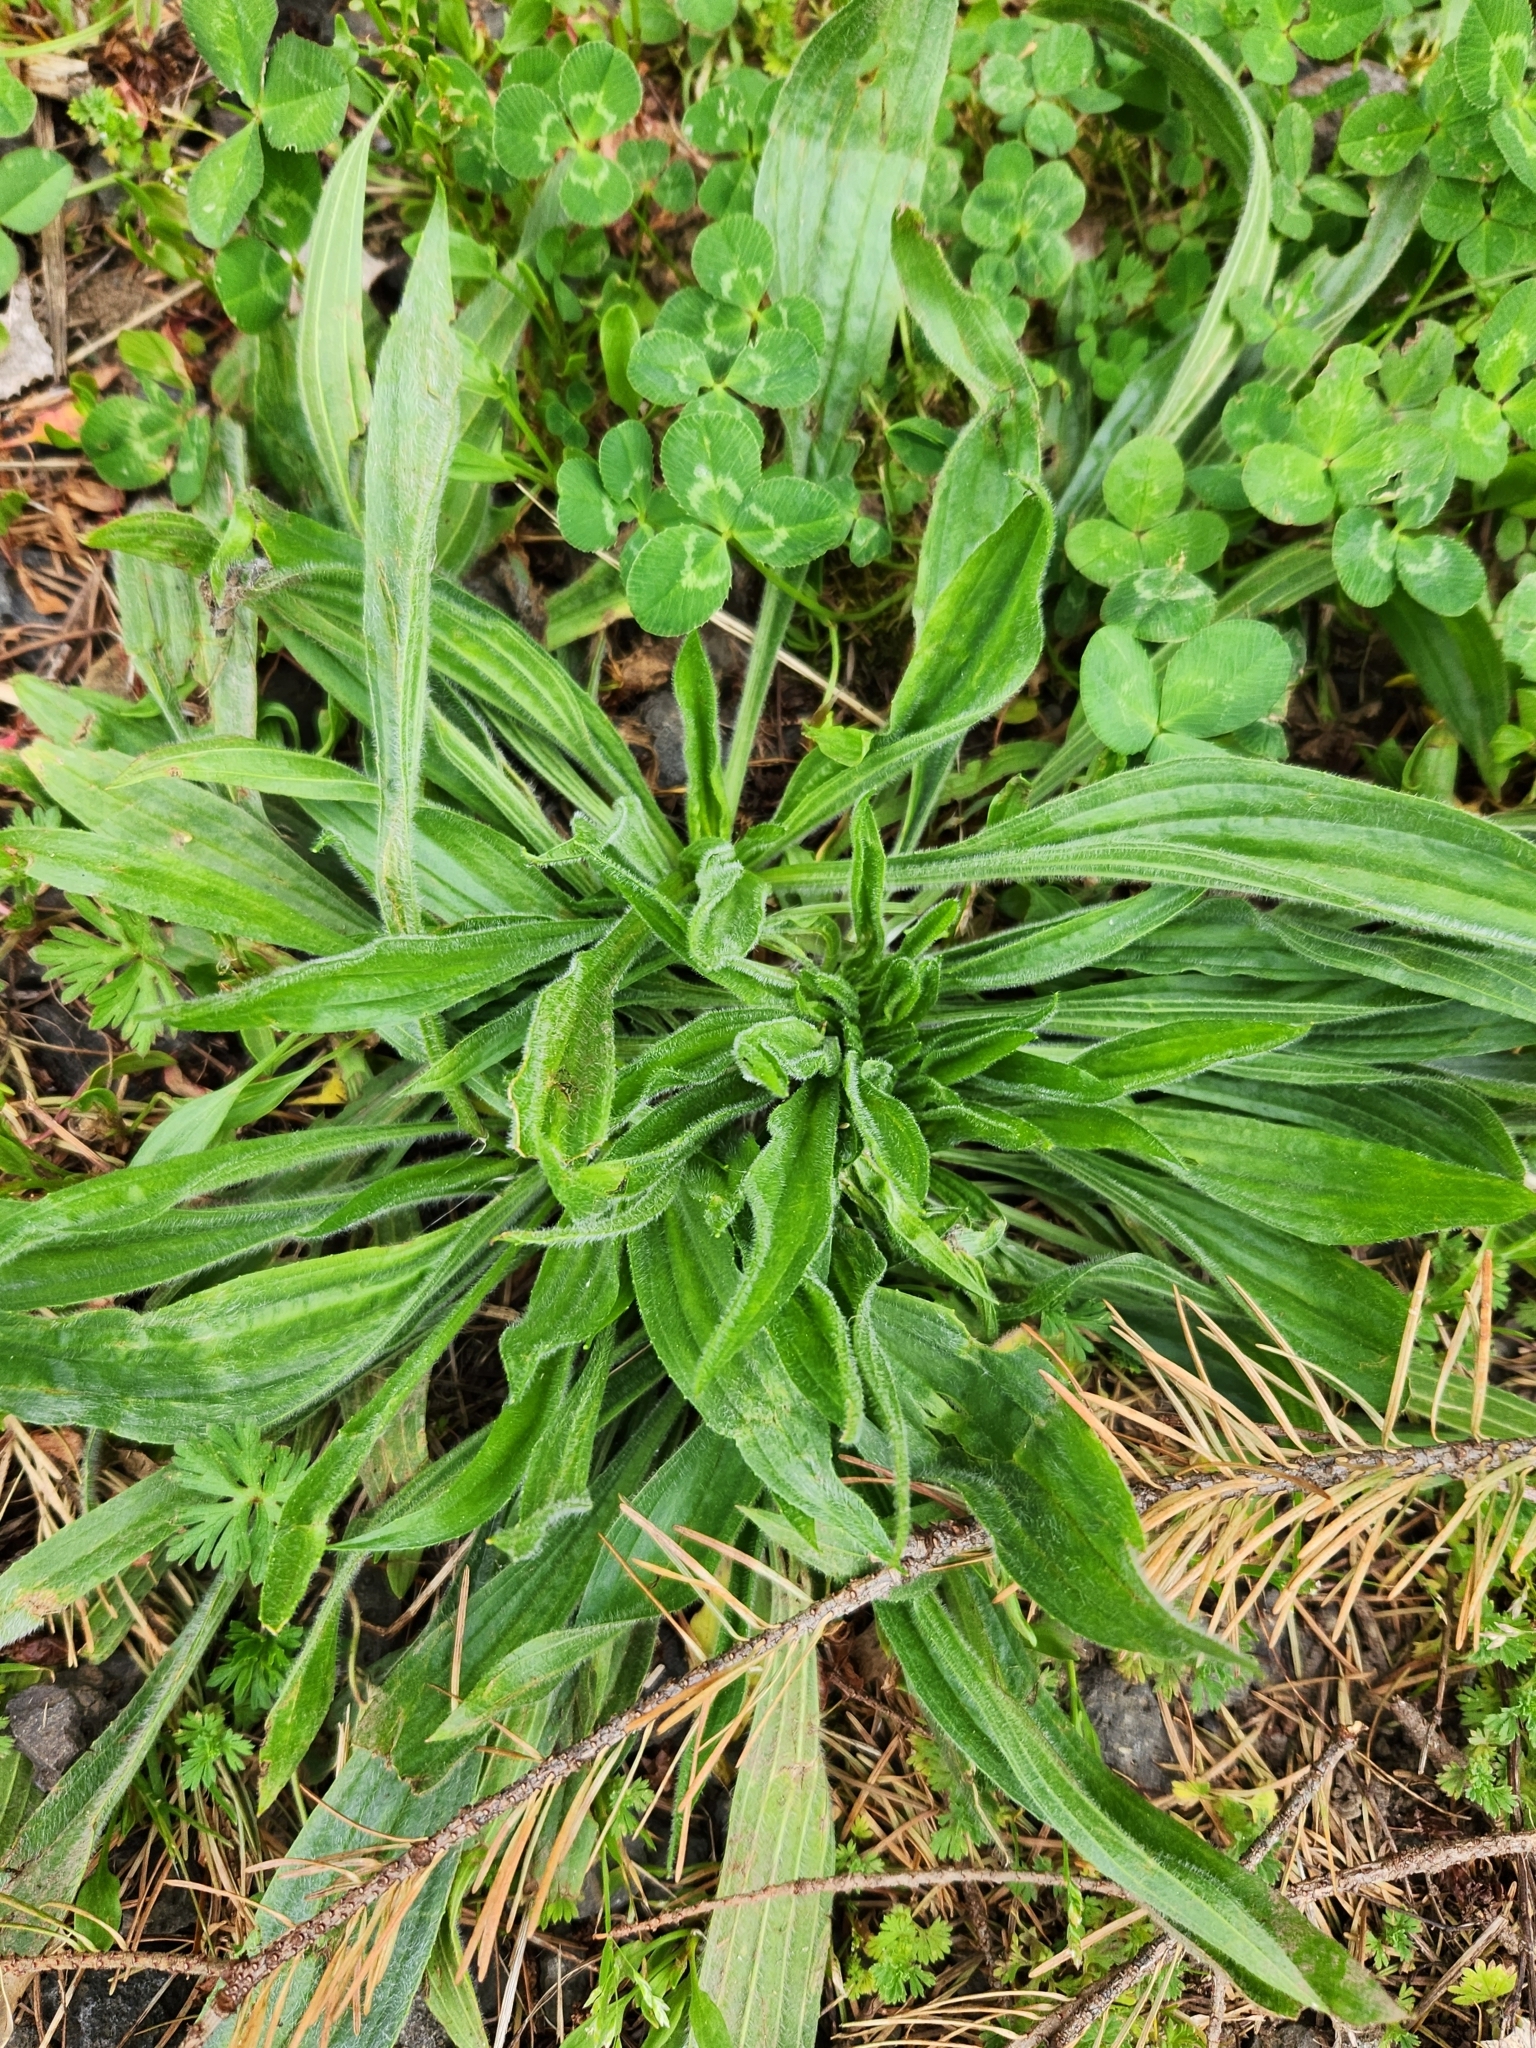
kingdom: Plantae
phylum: Tracheophyta
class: Magnoliopsida
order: Lamiales
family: Plantaginaceae
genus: Plantago
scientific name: Plantago lanceolata
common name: Ribwort plantain
